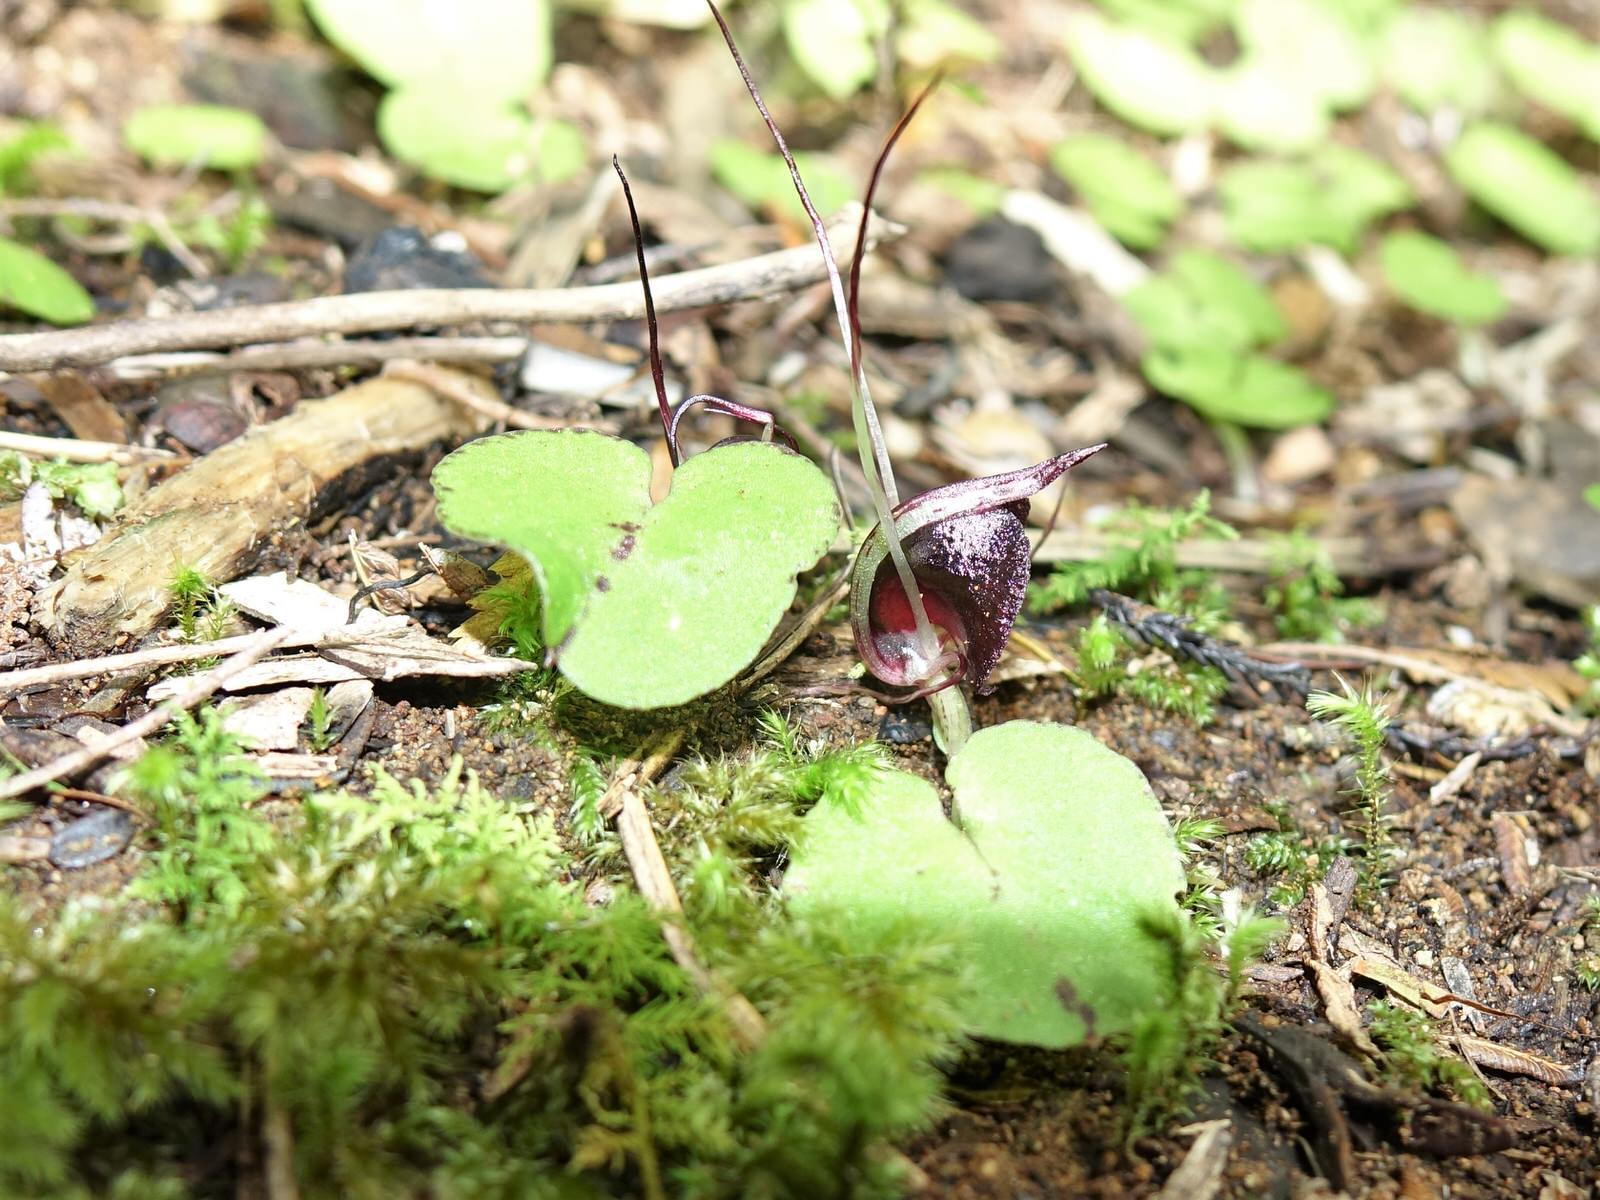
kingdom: Plantae
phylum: Tracheophyta
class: Liliopsida
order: Asparagales
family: Orchidaceae
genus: Corybas
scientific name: Corybas macranthus
